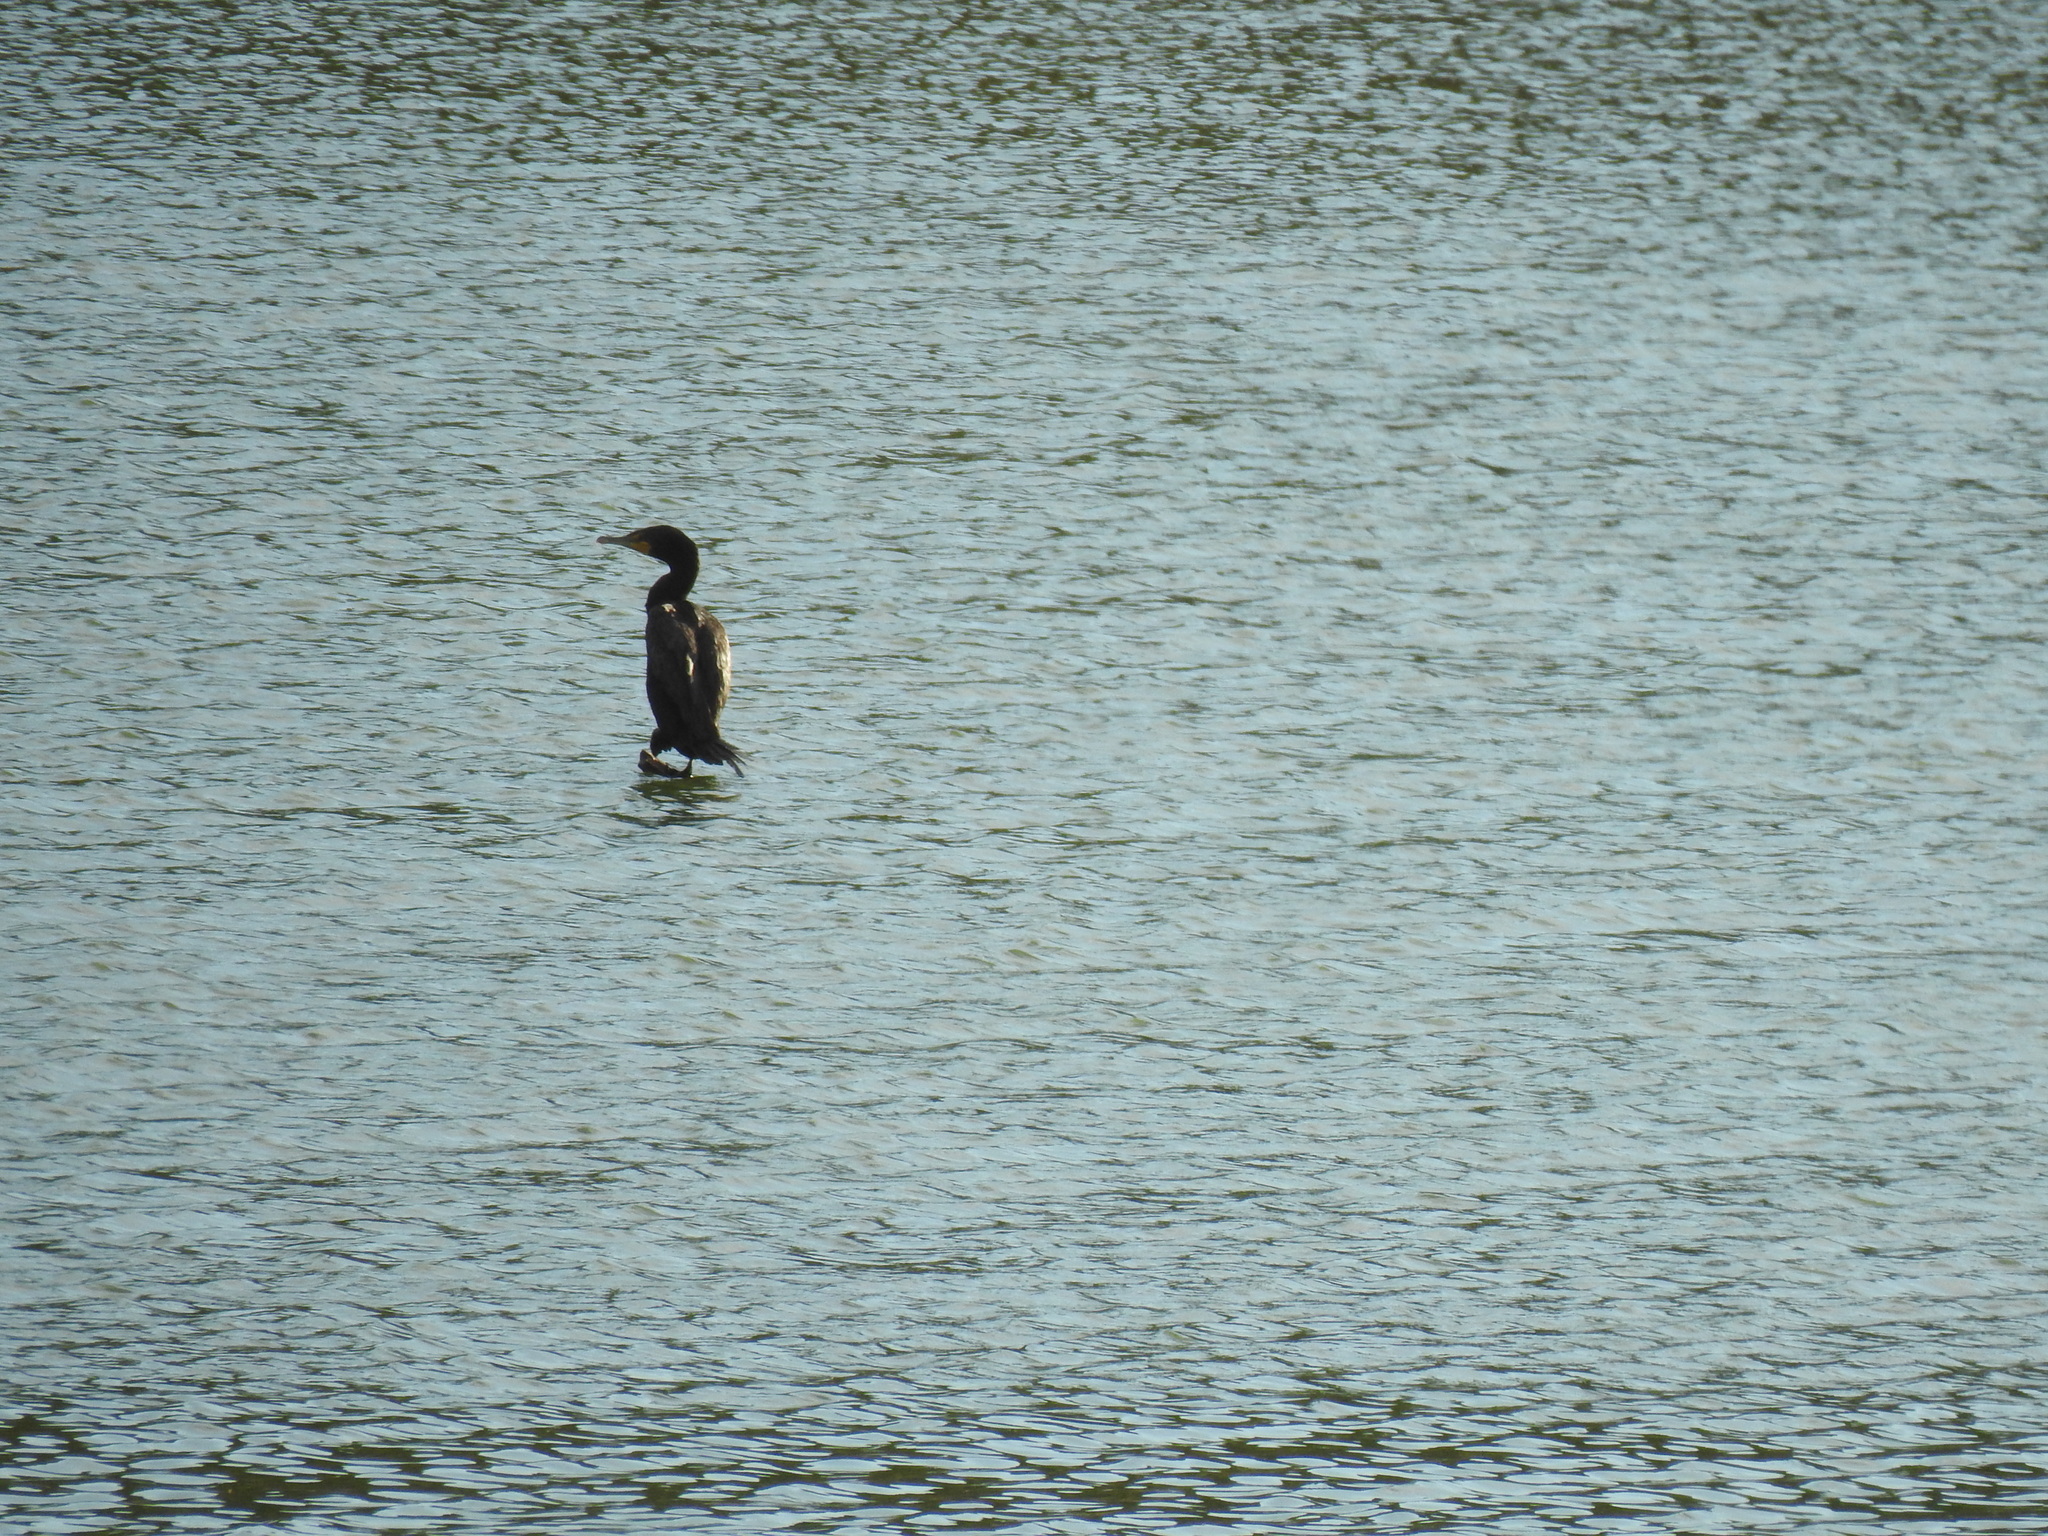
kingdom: Animalia
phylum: Chordata
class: Aves
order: Suliformes
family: Phalacrocoracidae
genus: Phalacrocorax
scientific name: Phalacrocorax auritus
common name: Double-crested cormorant
